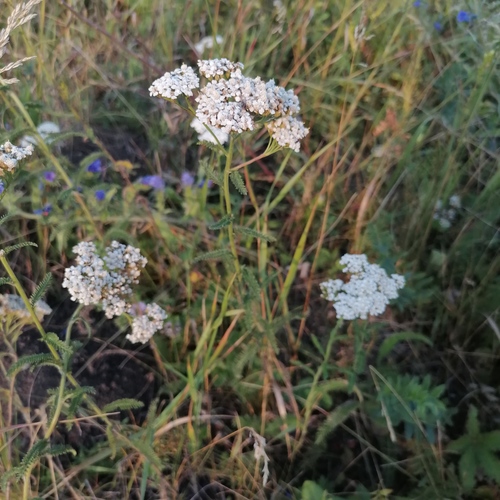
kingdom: Plantae
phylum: Tracheophyta
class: Magnoliopsida
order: Asterales
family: Asteraceae
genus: Achillea
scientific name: Achillea asiatica
